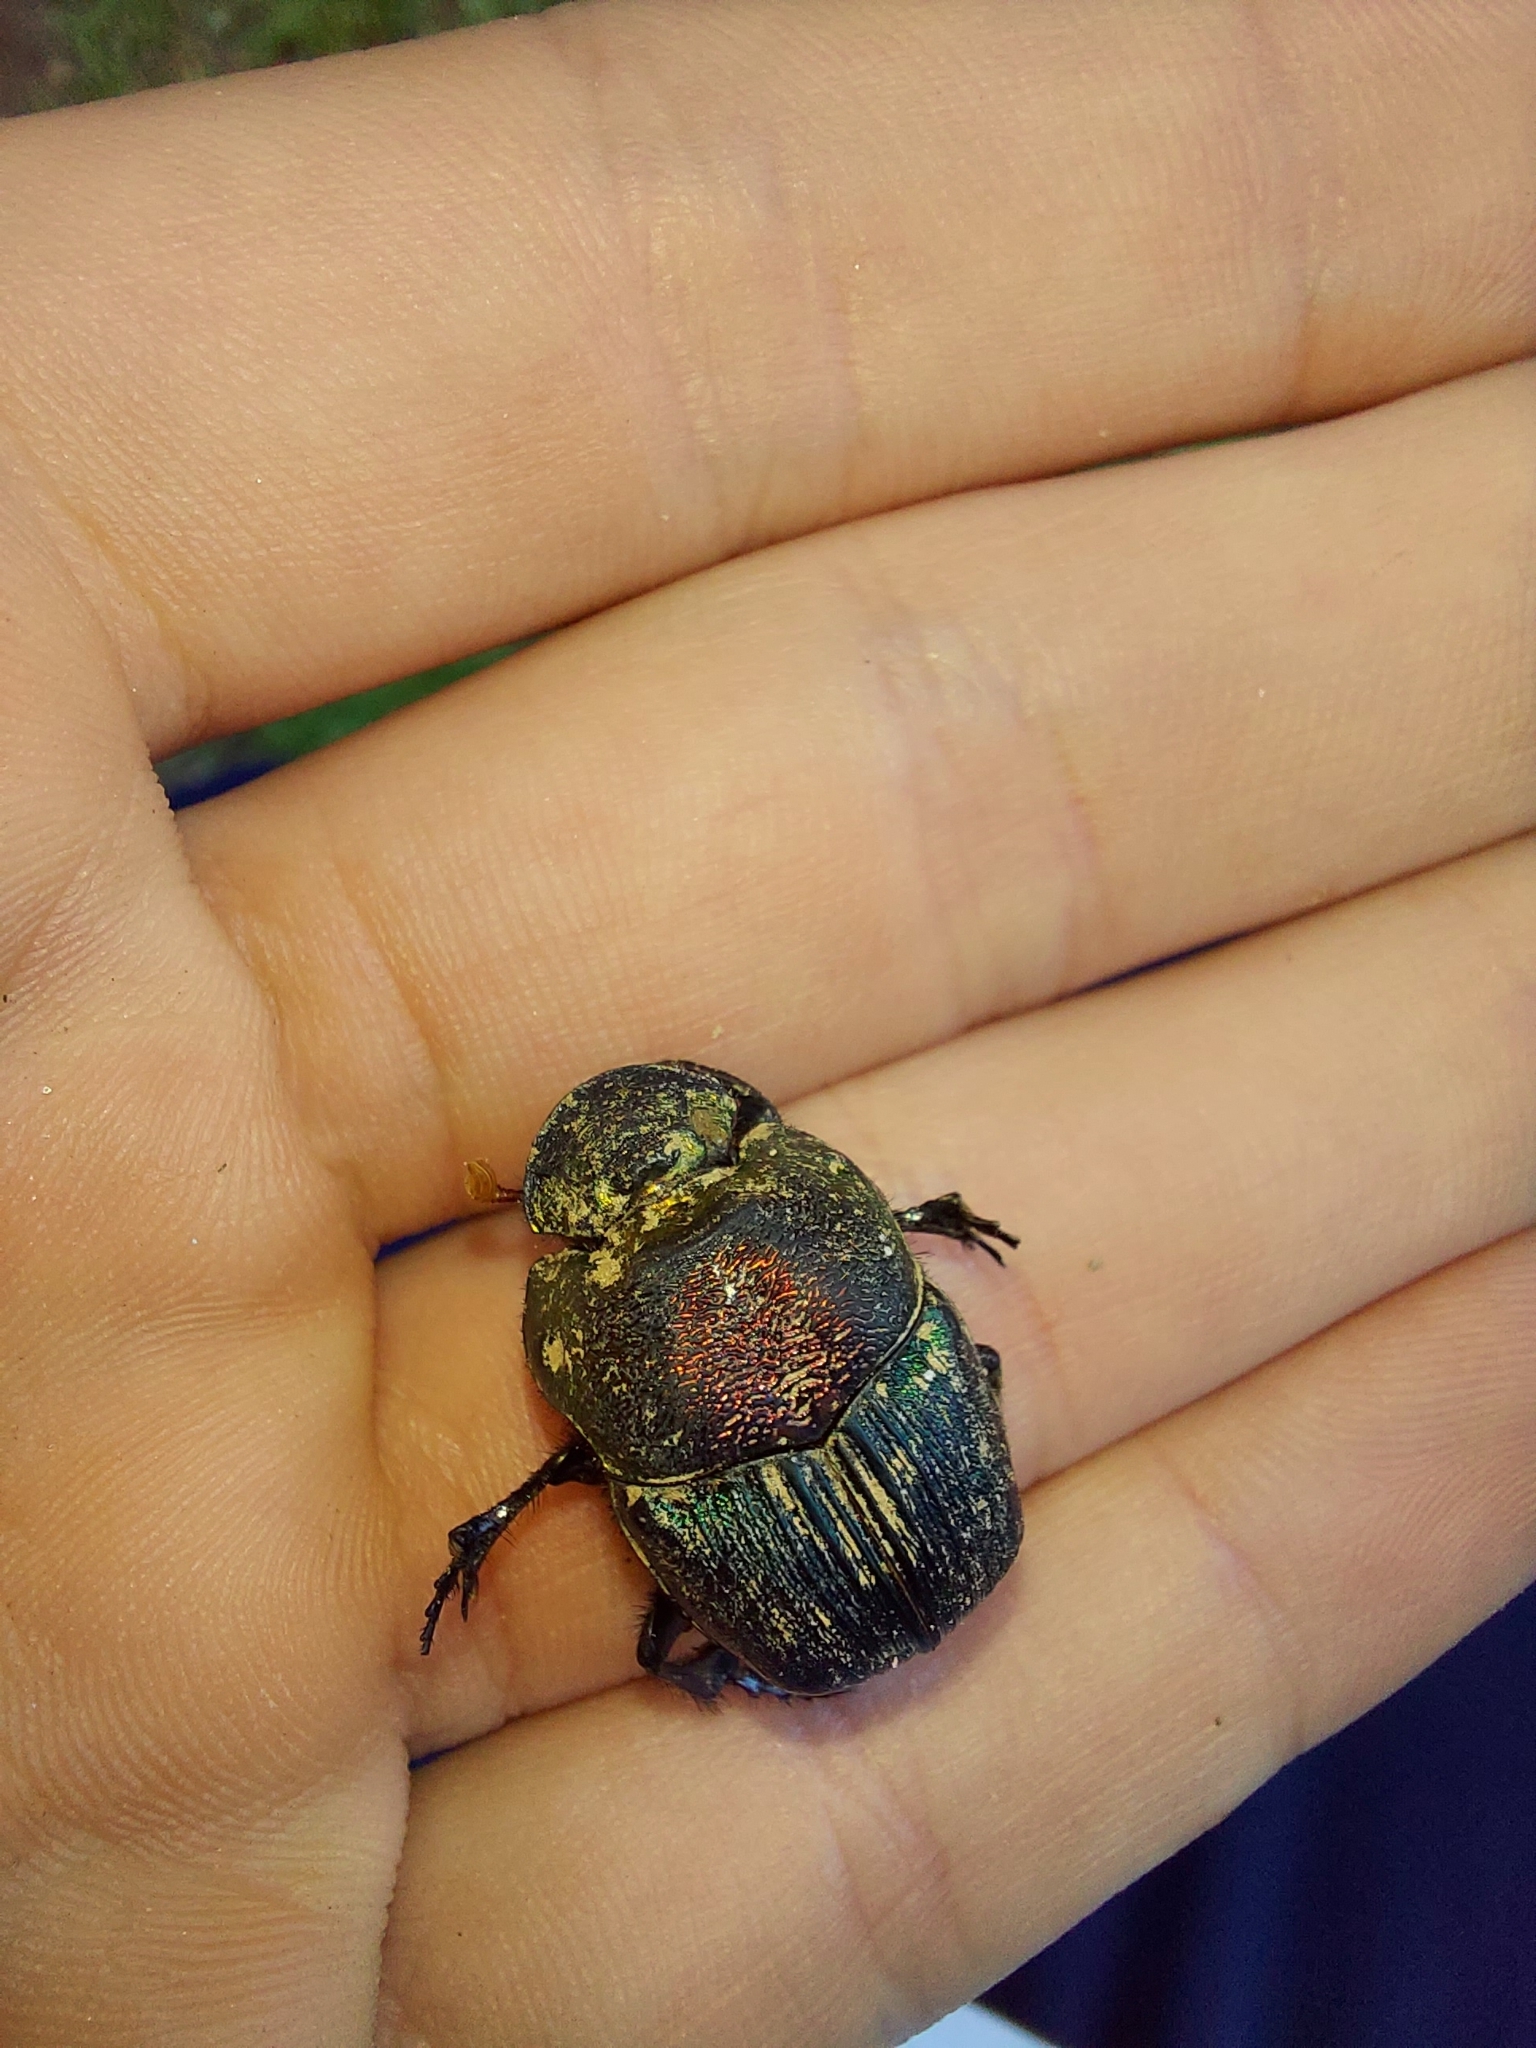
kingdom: Animalia
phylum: Arthropoda
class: Insecta
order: Coleoptera
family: Scarabaeidae
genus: Phanaeus
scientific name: Phanaeus vindex
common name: Rainbow scarab
